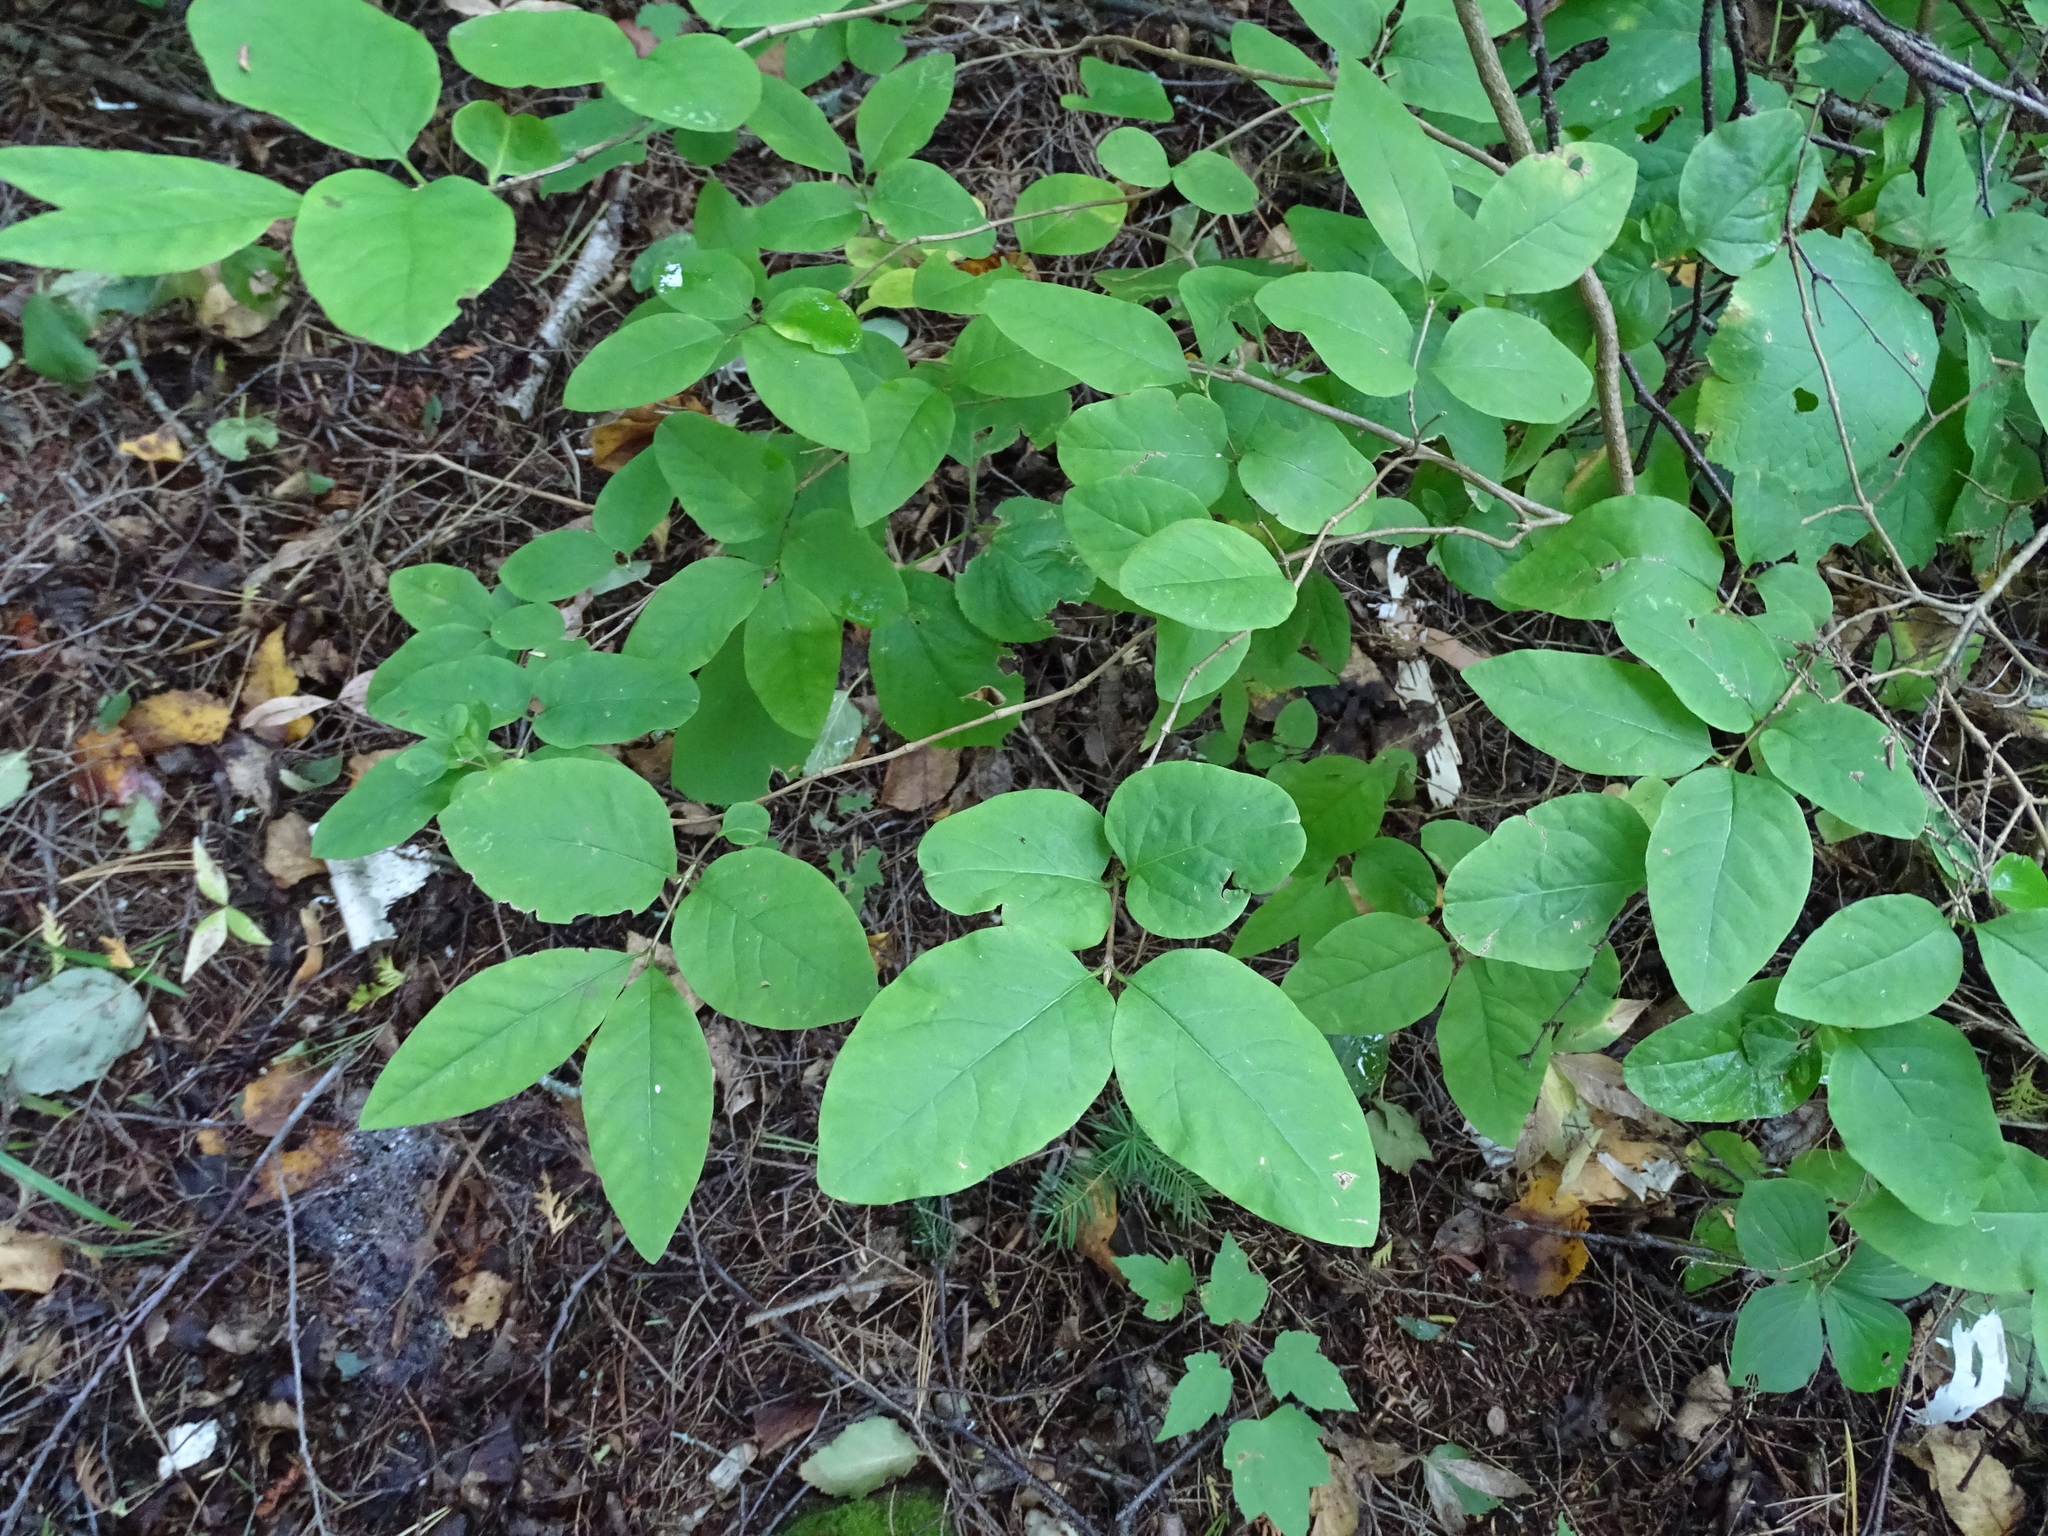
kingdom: Plantae
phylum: Tracheophyta
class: Magnoliopsida
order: Dipsacales
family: Caprifoliaceae
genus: Lonicera
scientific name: Lonicera canadensis
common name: American fly-honeysuckle
